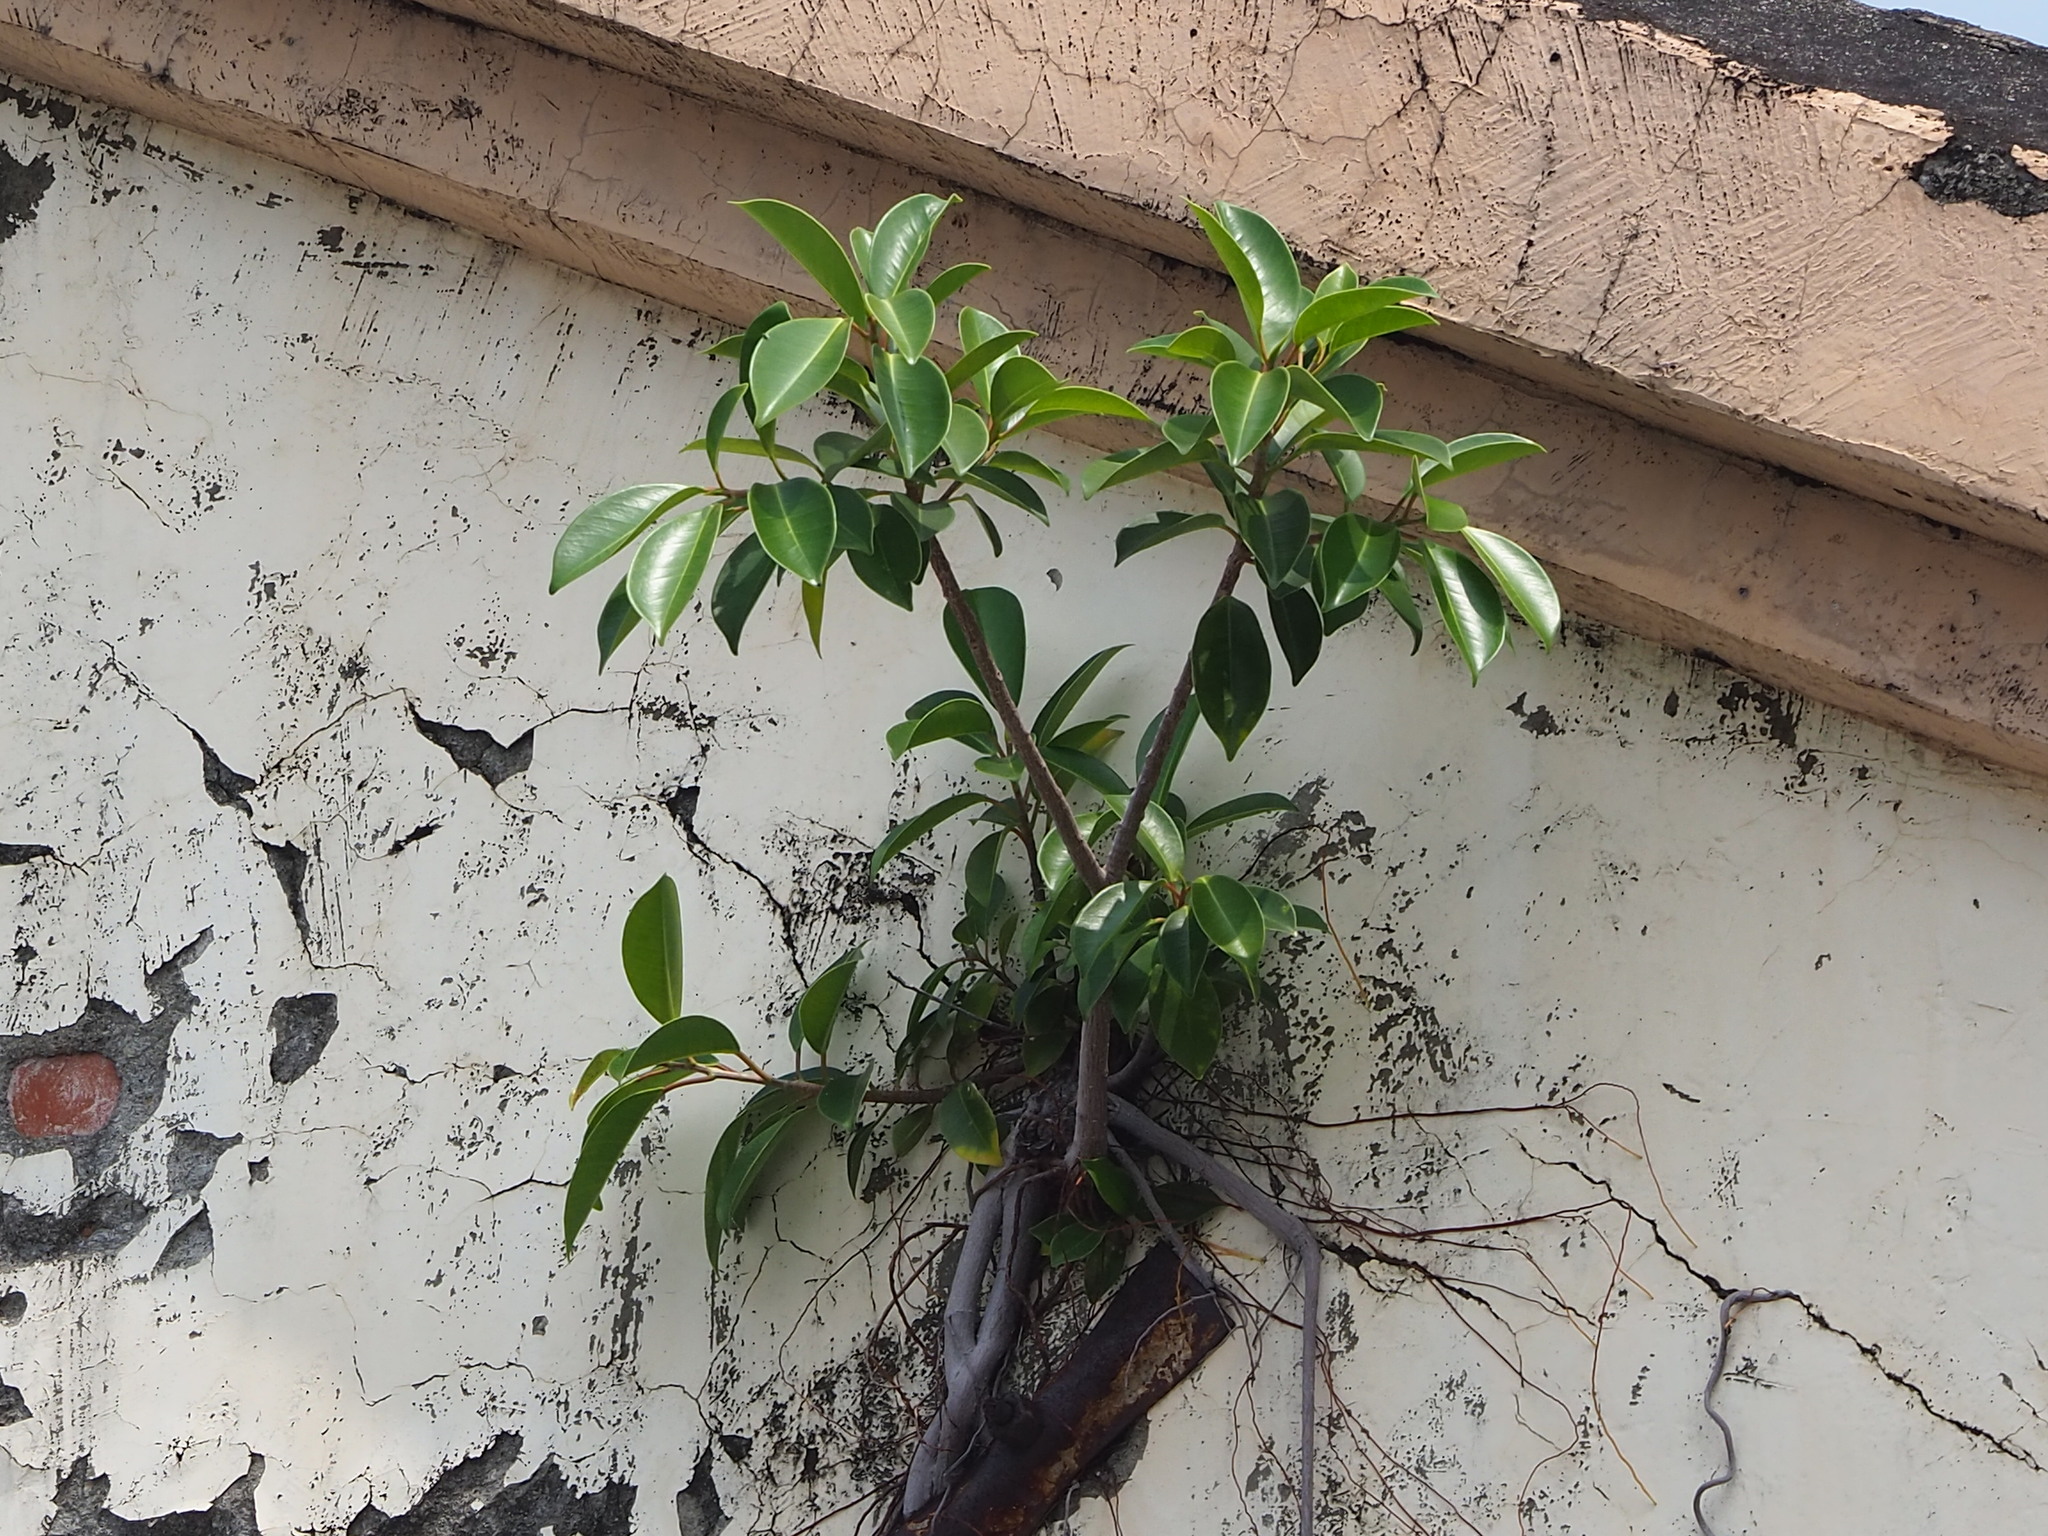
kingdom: Plantae
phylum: Tracheophyta
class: Magnoliopsida
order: Rosales
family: Moraceae
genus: Ficus
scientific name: Ficus microcarpa
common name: Chinese banyan
